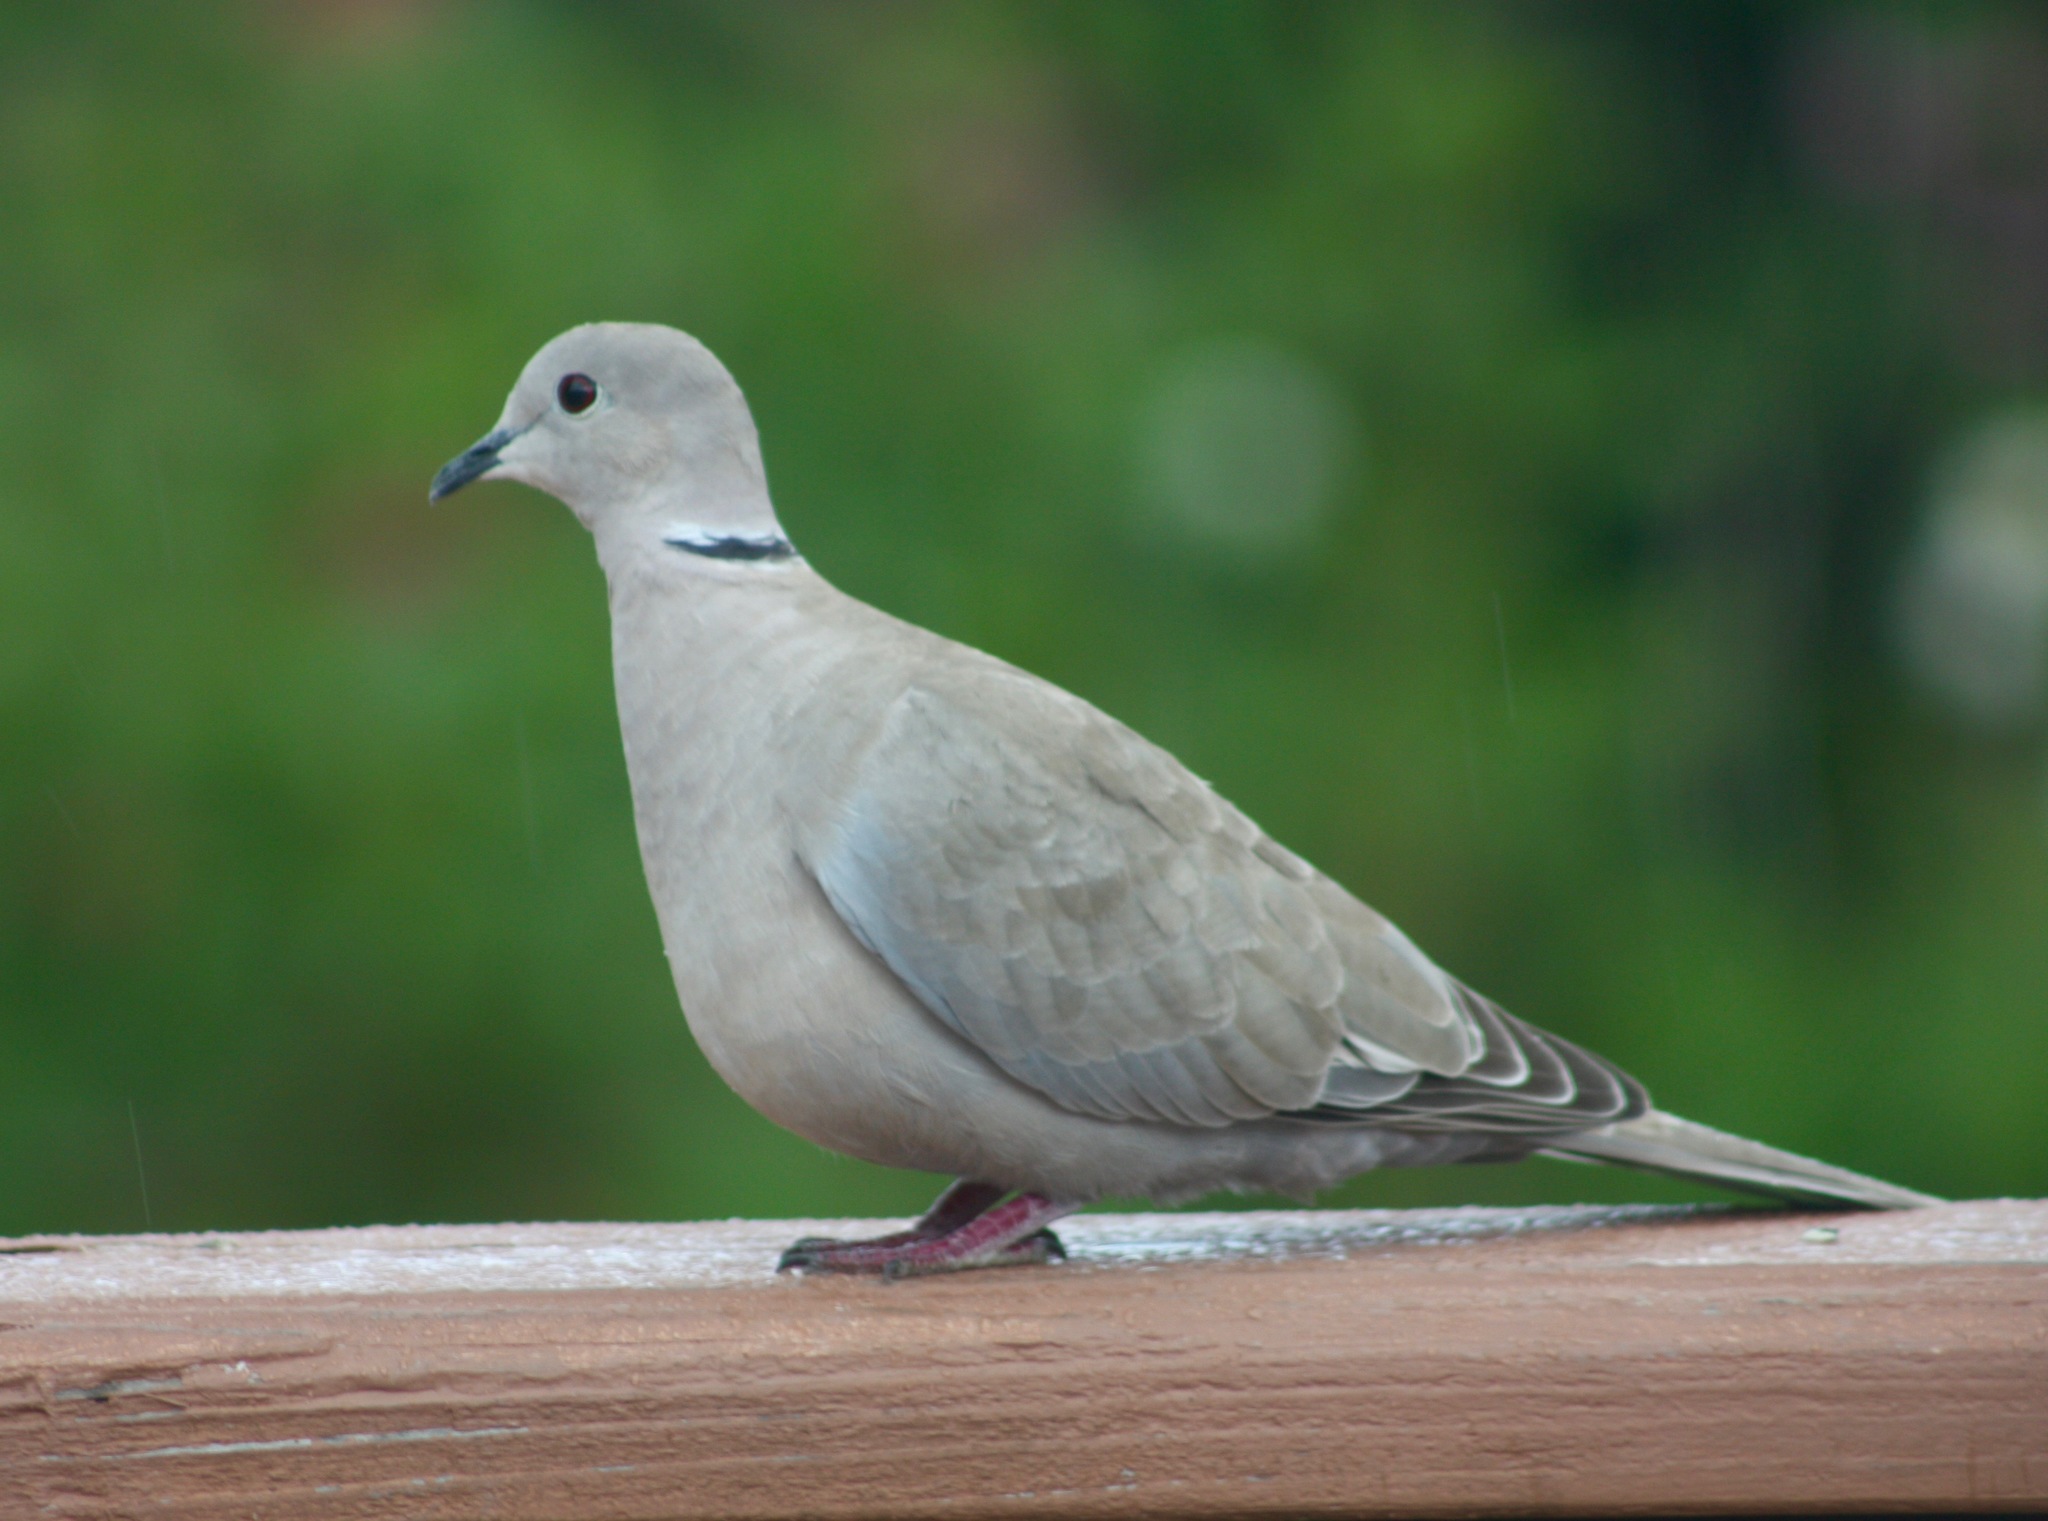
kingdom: Animalia
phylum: Chordata
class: Aves
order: Columbiformes
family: Columbidae
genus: Streptopelia
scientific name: Streptopelia decaocto
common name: Eurasian collared dove
